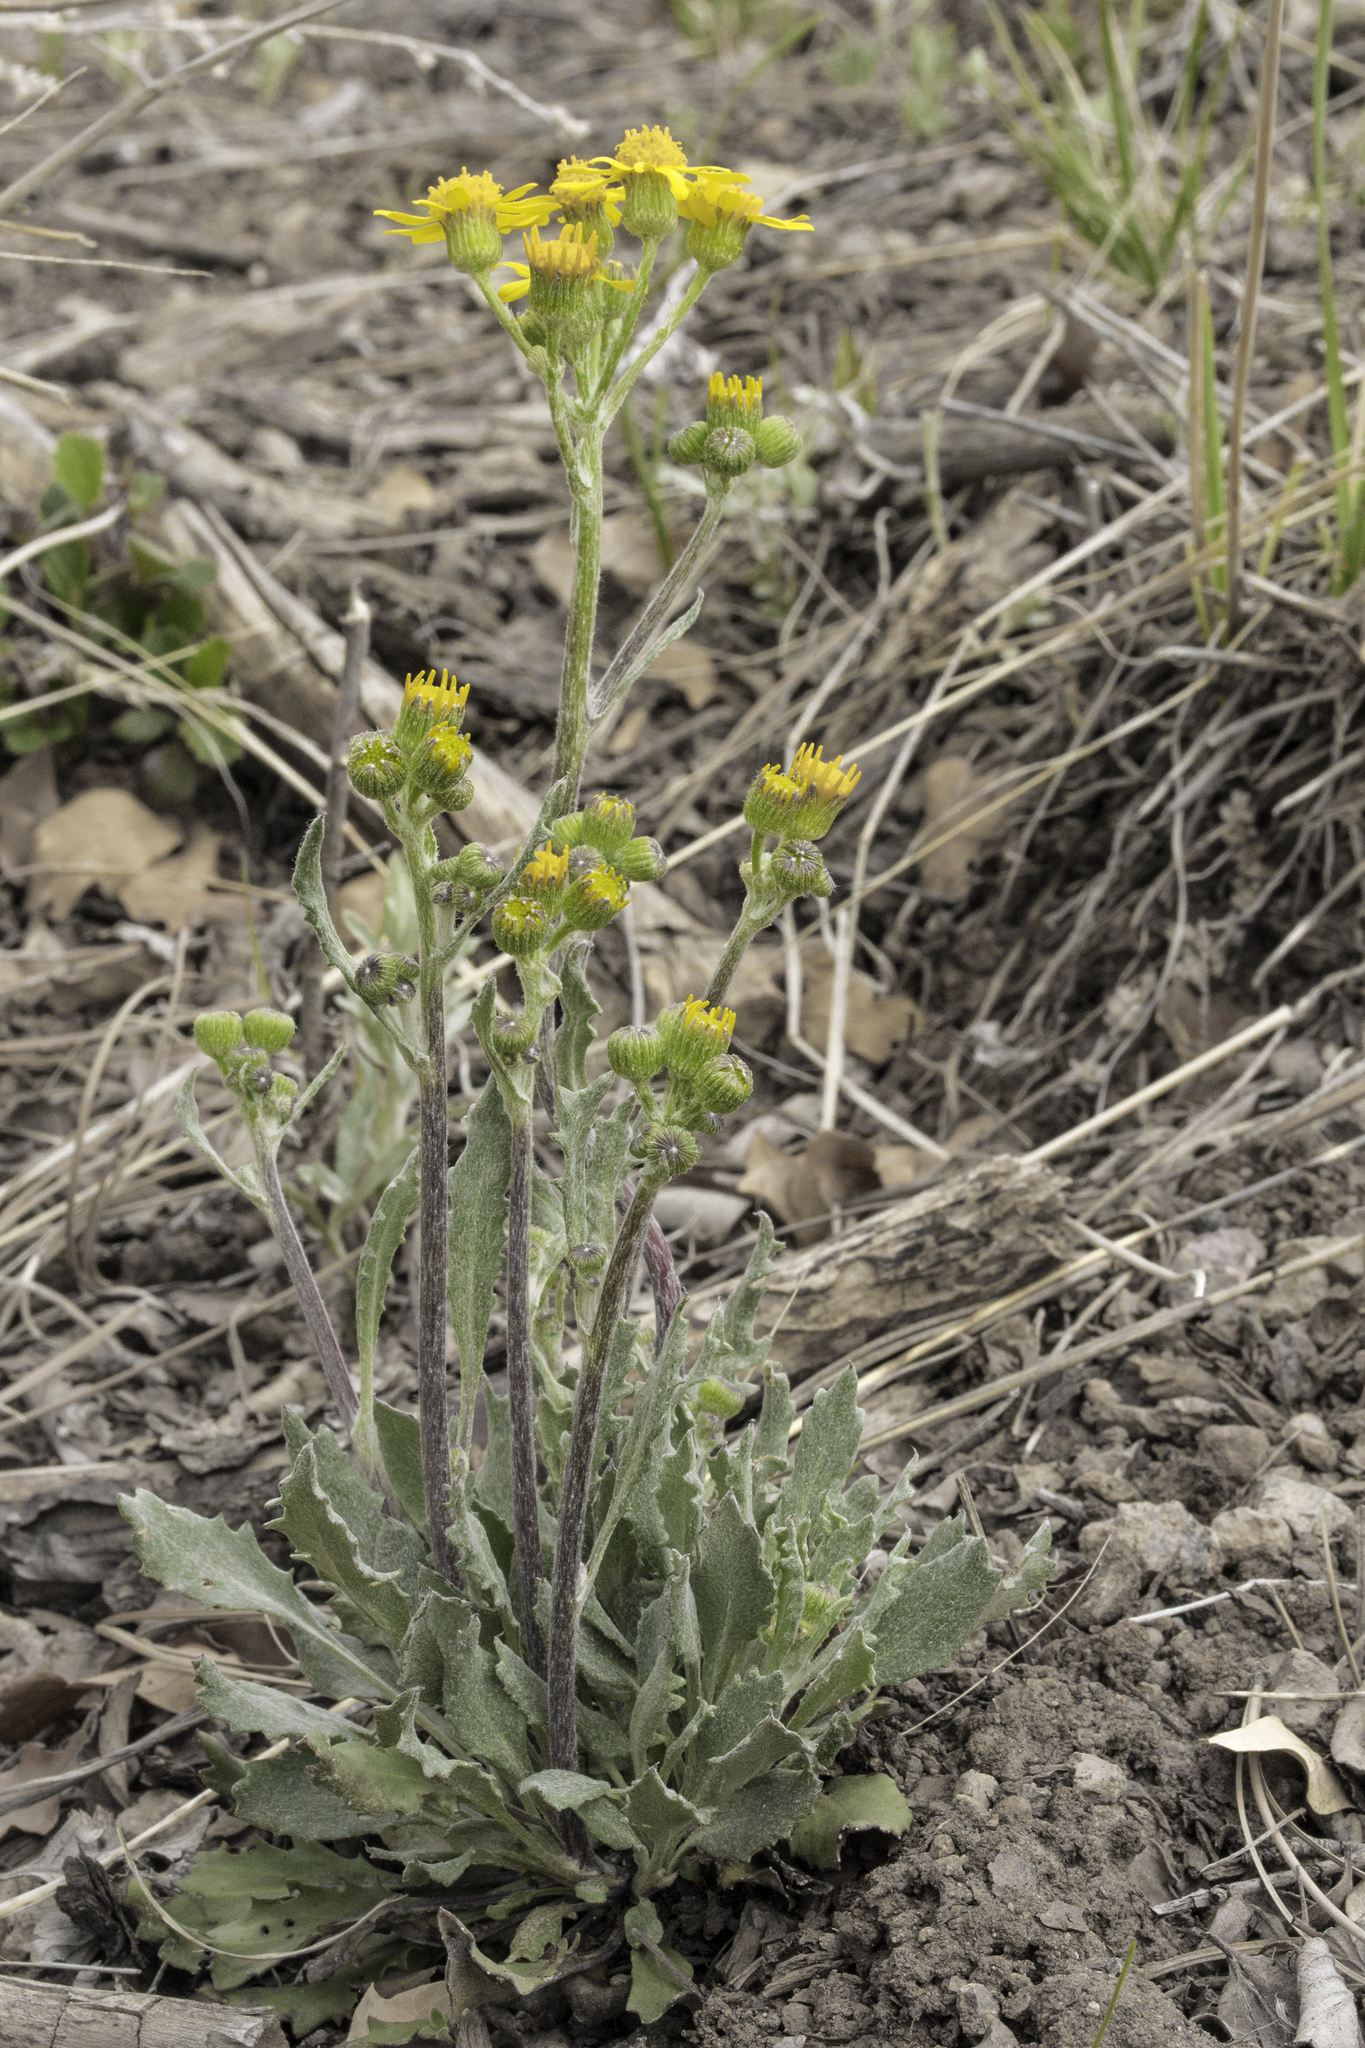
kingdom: Plantae
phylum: Tracheophyta
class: Magnoliopsida
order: Asterales
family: Asteraceae
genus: Packera
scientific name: Packera neomexicana
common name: New mexico butterweed
